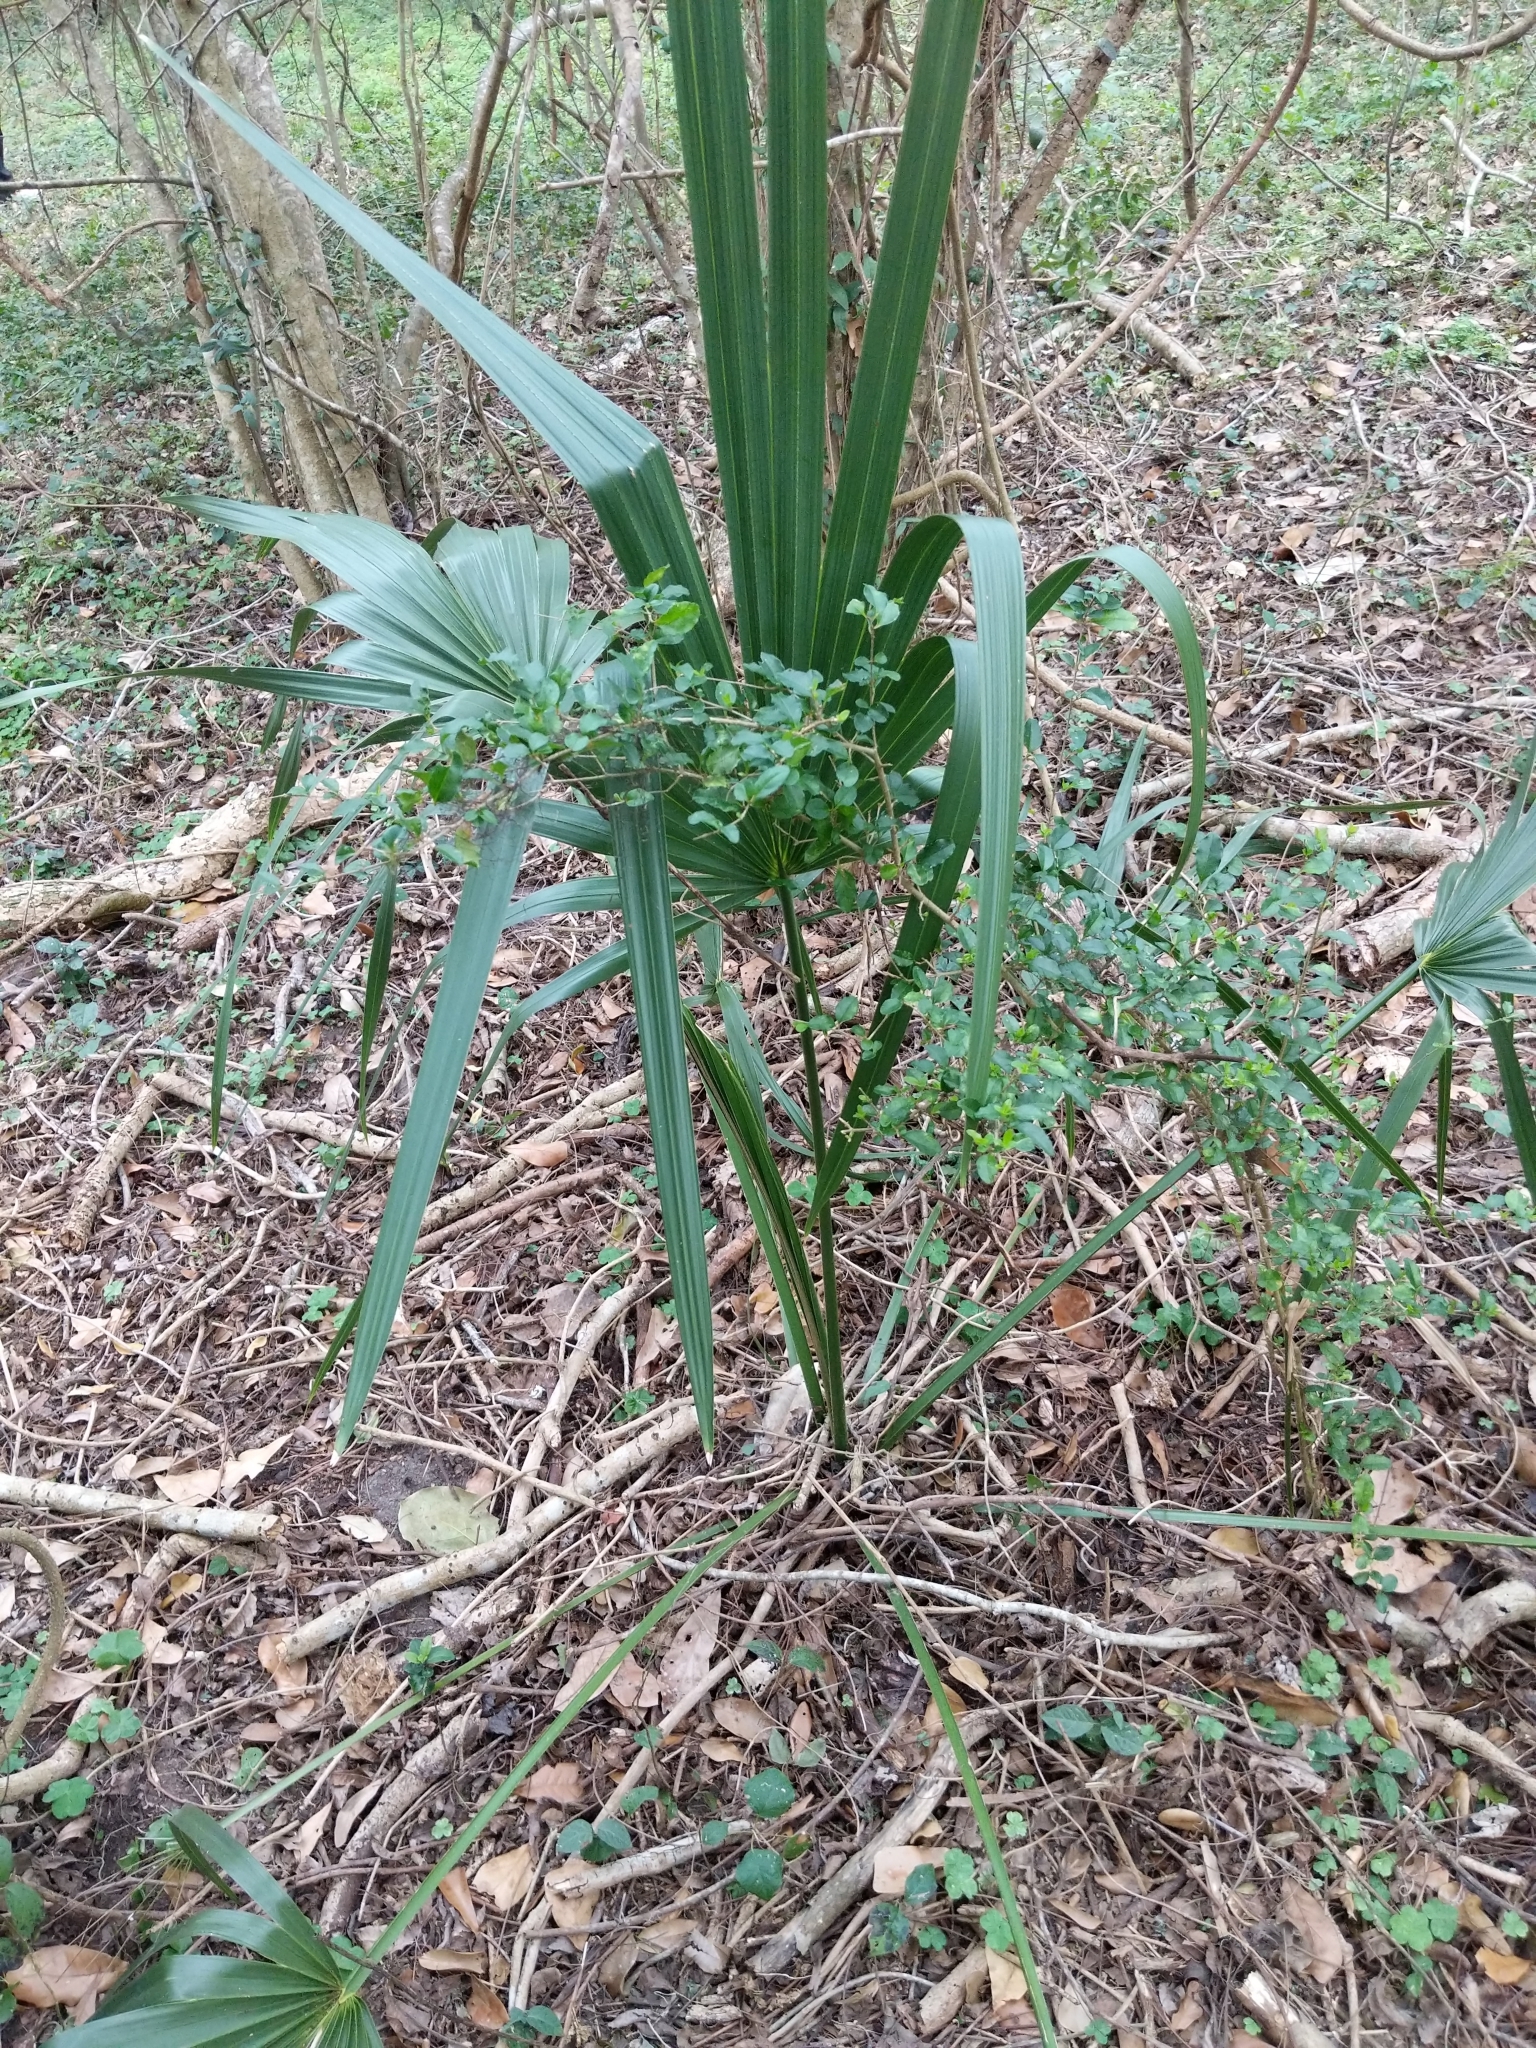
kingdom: Plantae
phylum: Tracheophyta
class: Liliopsida
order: Arecales
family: Arecaceae
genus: Sabal
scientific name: Sabal minor
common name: Dwarf palmetto
